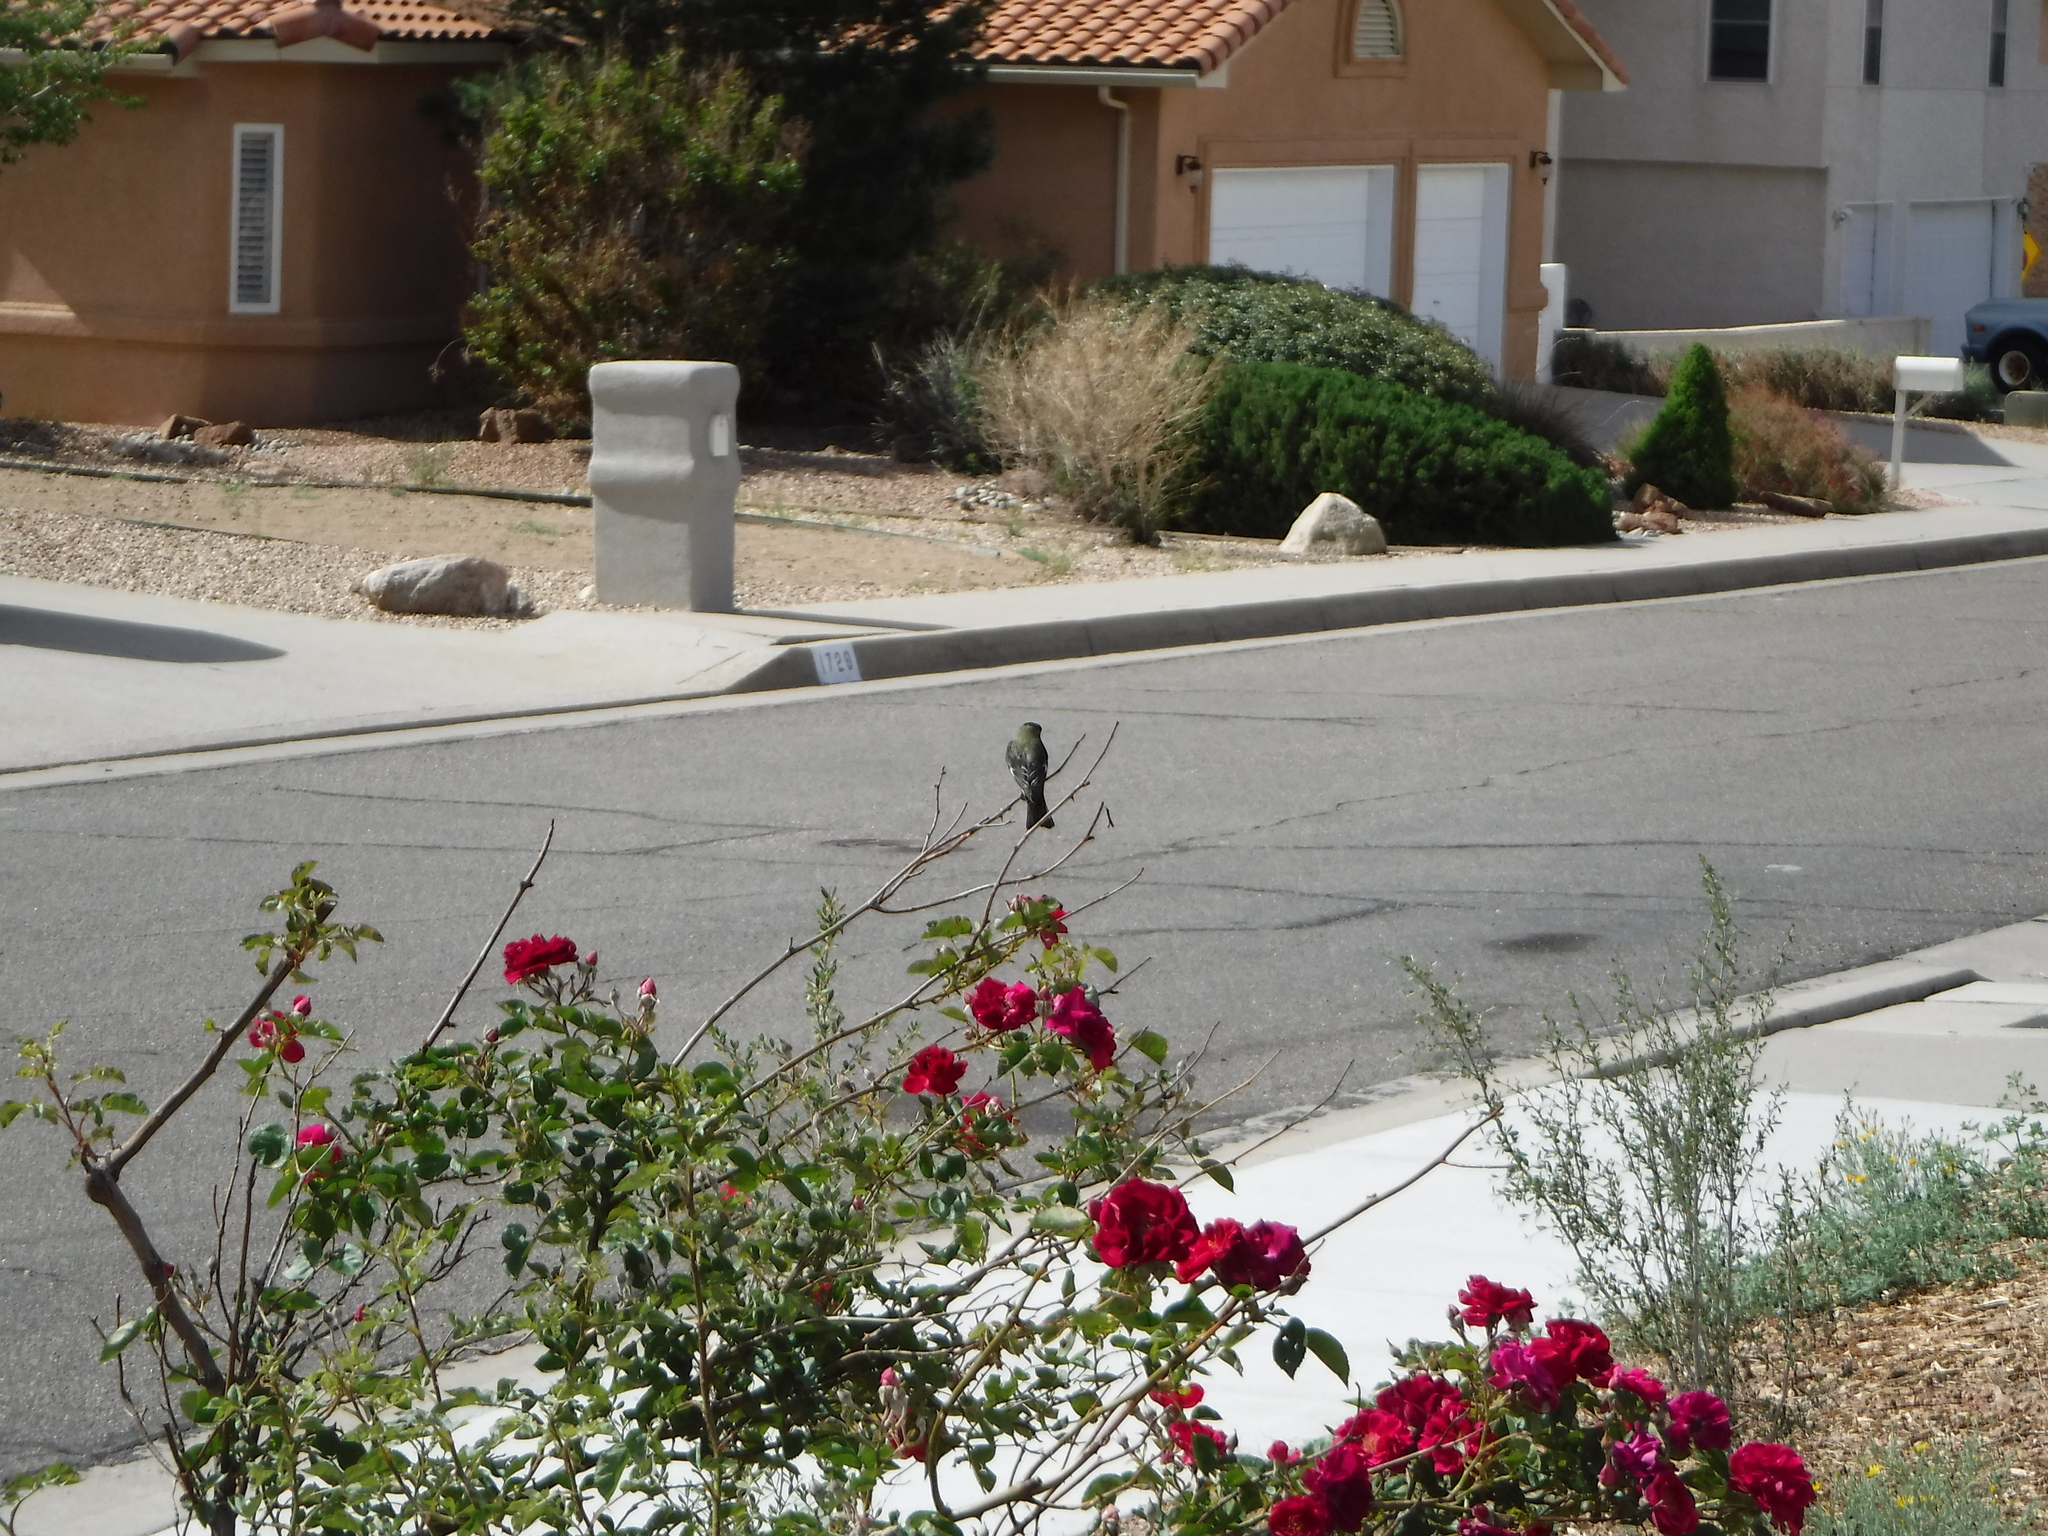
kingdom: Animalia
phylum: Chordata
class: Aves
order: Passeriformes
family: Fringillidae
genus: Spinus
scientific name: Spinus psaltria
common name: Lesser goldfinch
